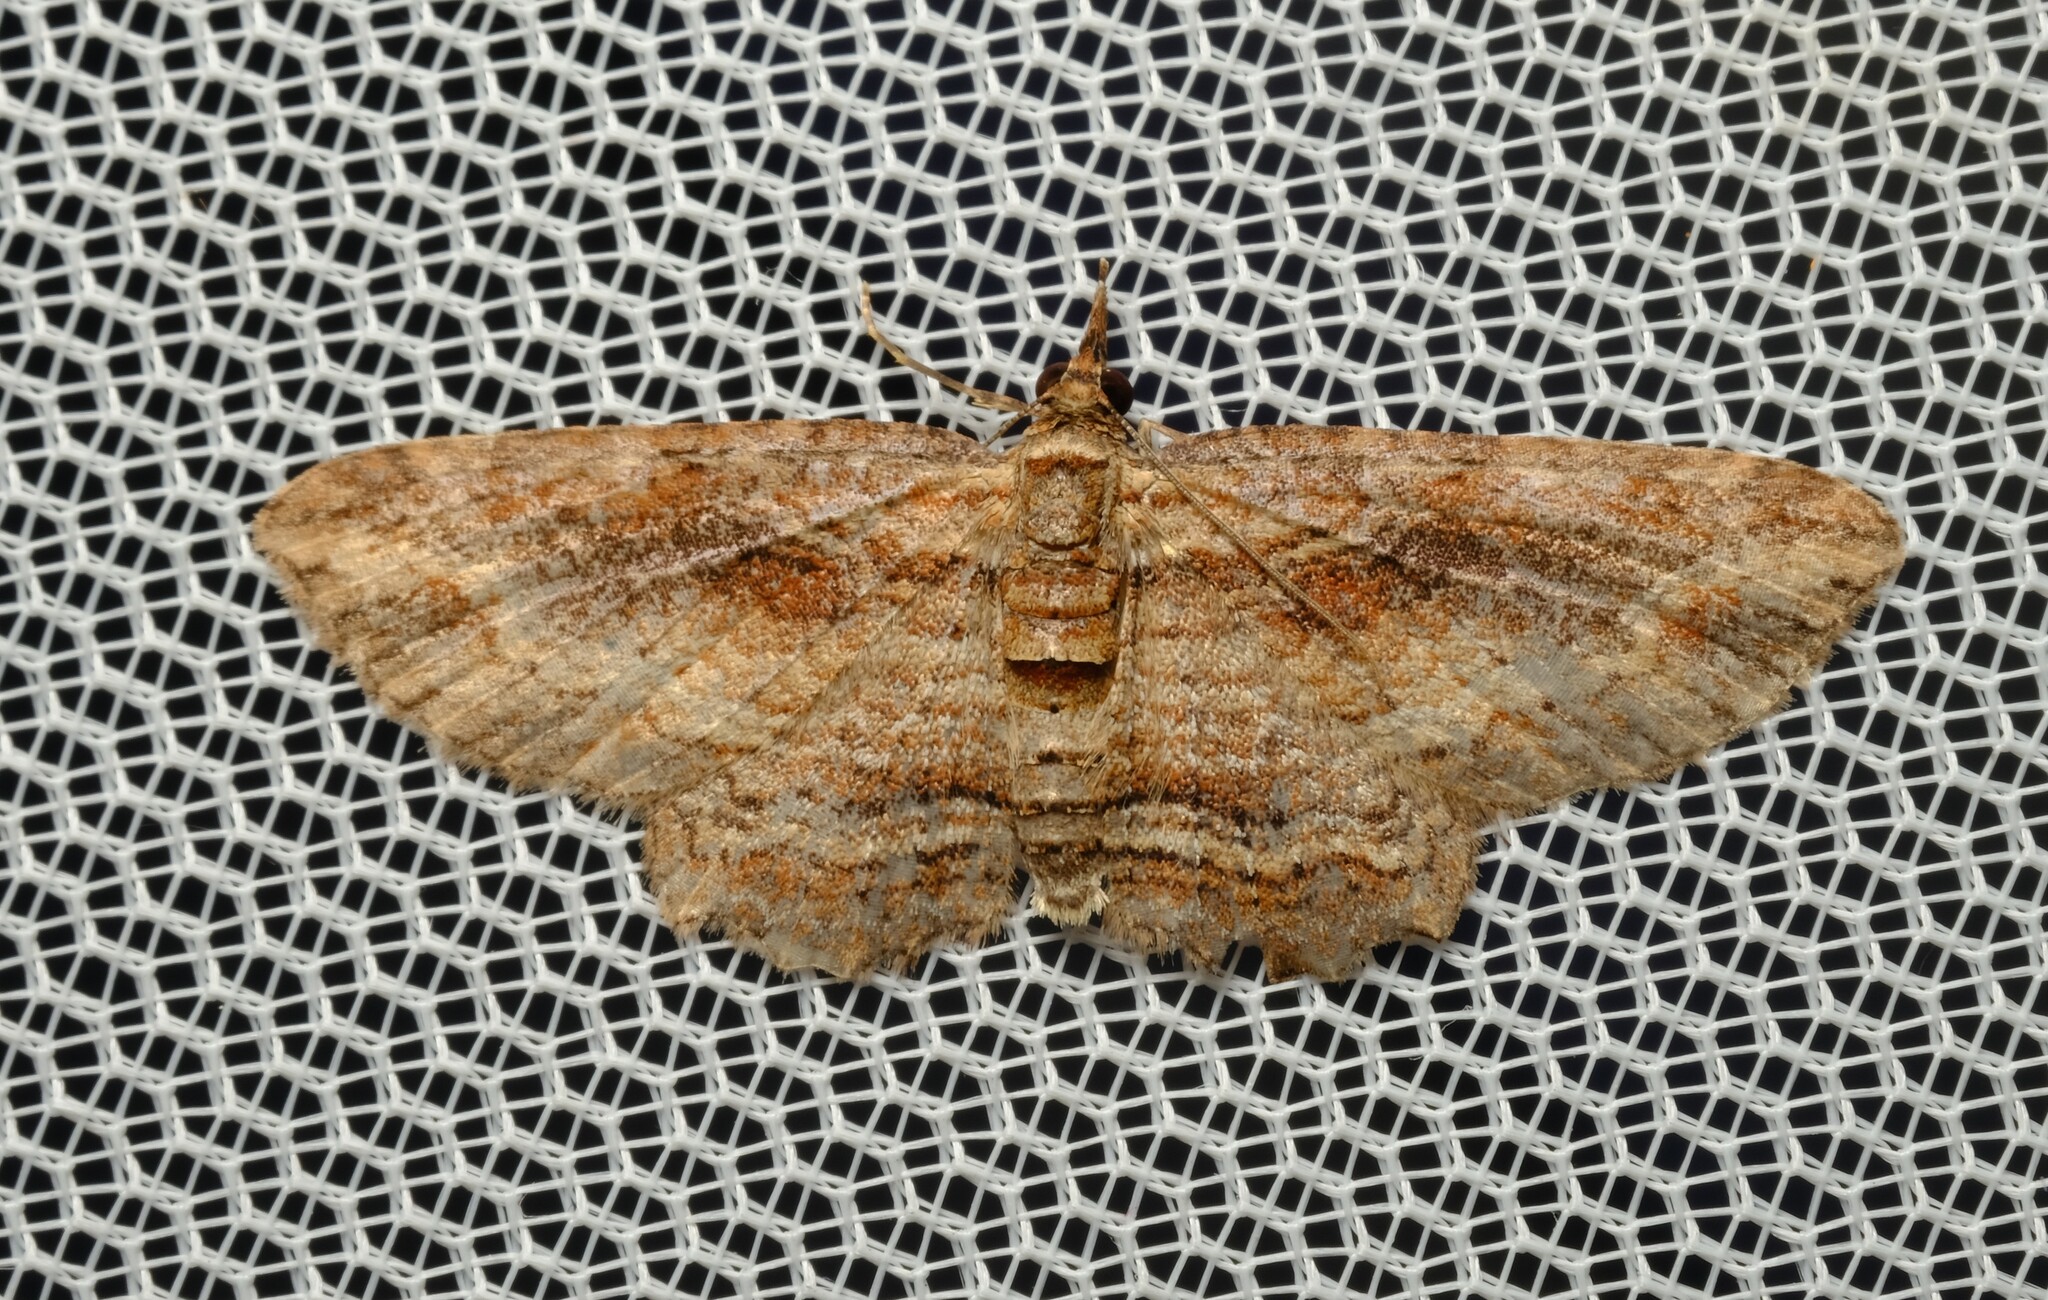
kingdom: Animalia
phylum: Arthropoda
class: Insecta
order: Lepidoptera
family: Geometridae
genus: Chloroclystis
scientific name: Chloroclystis filata
